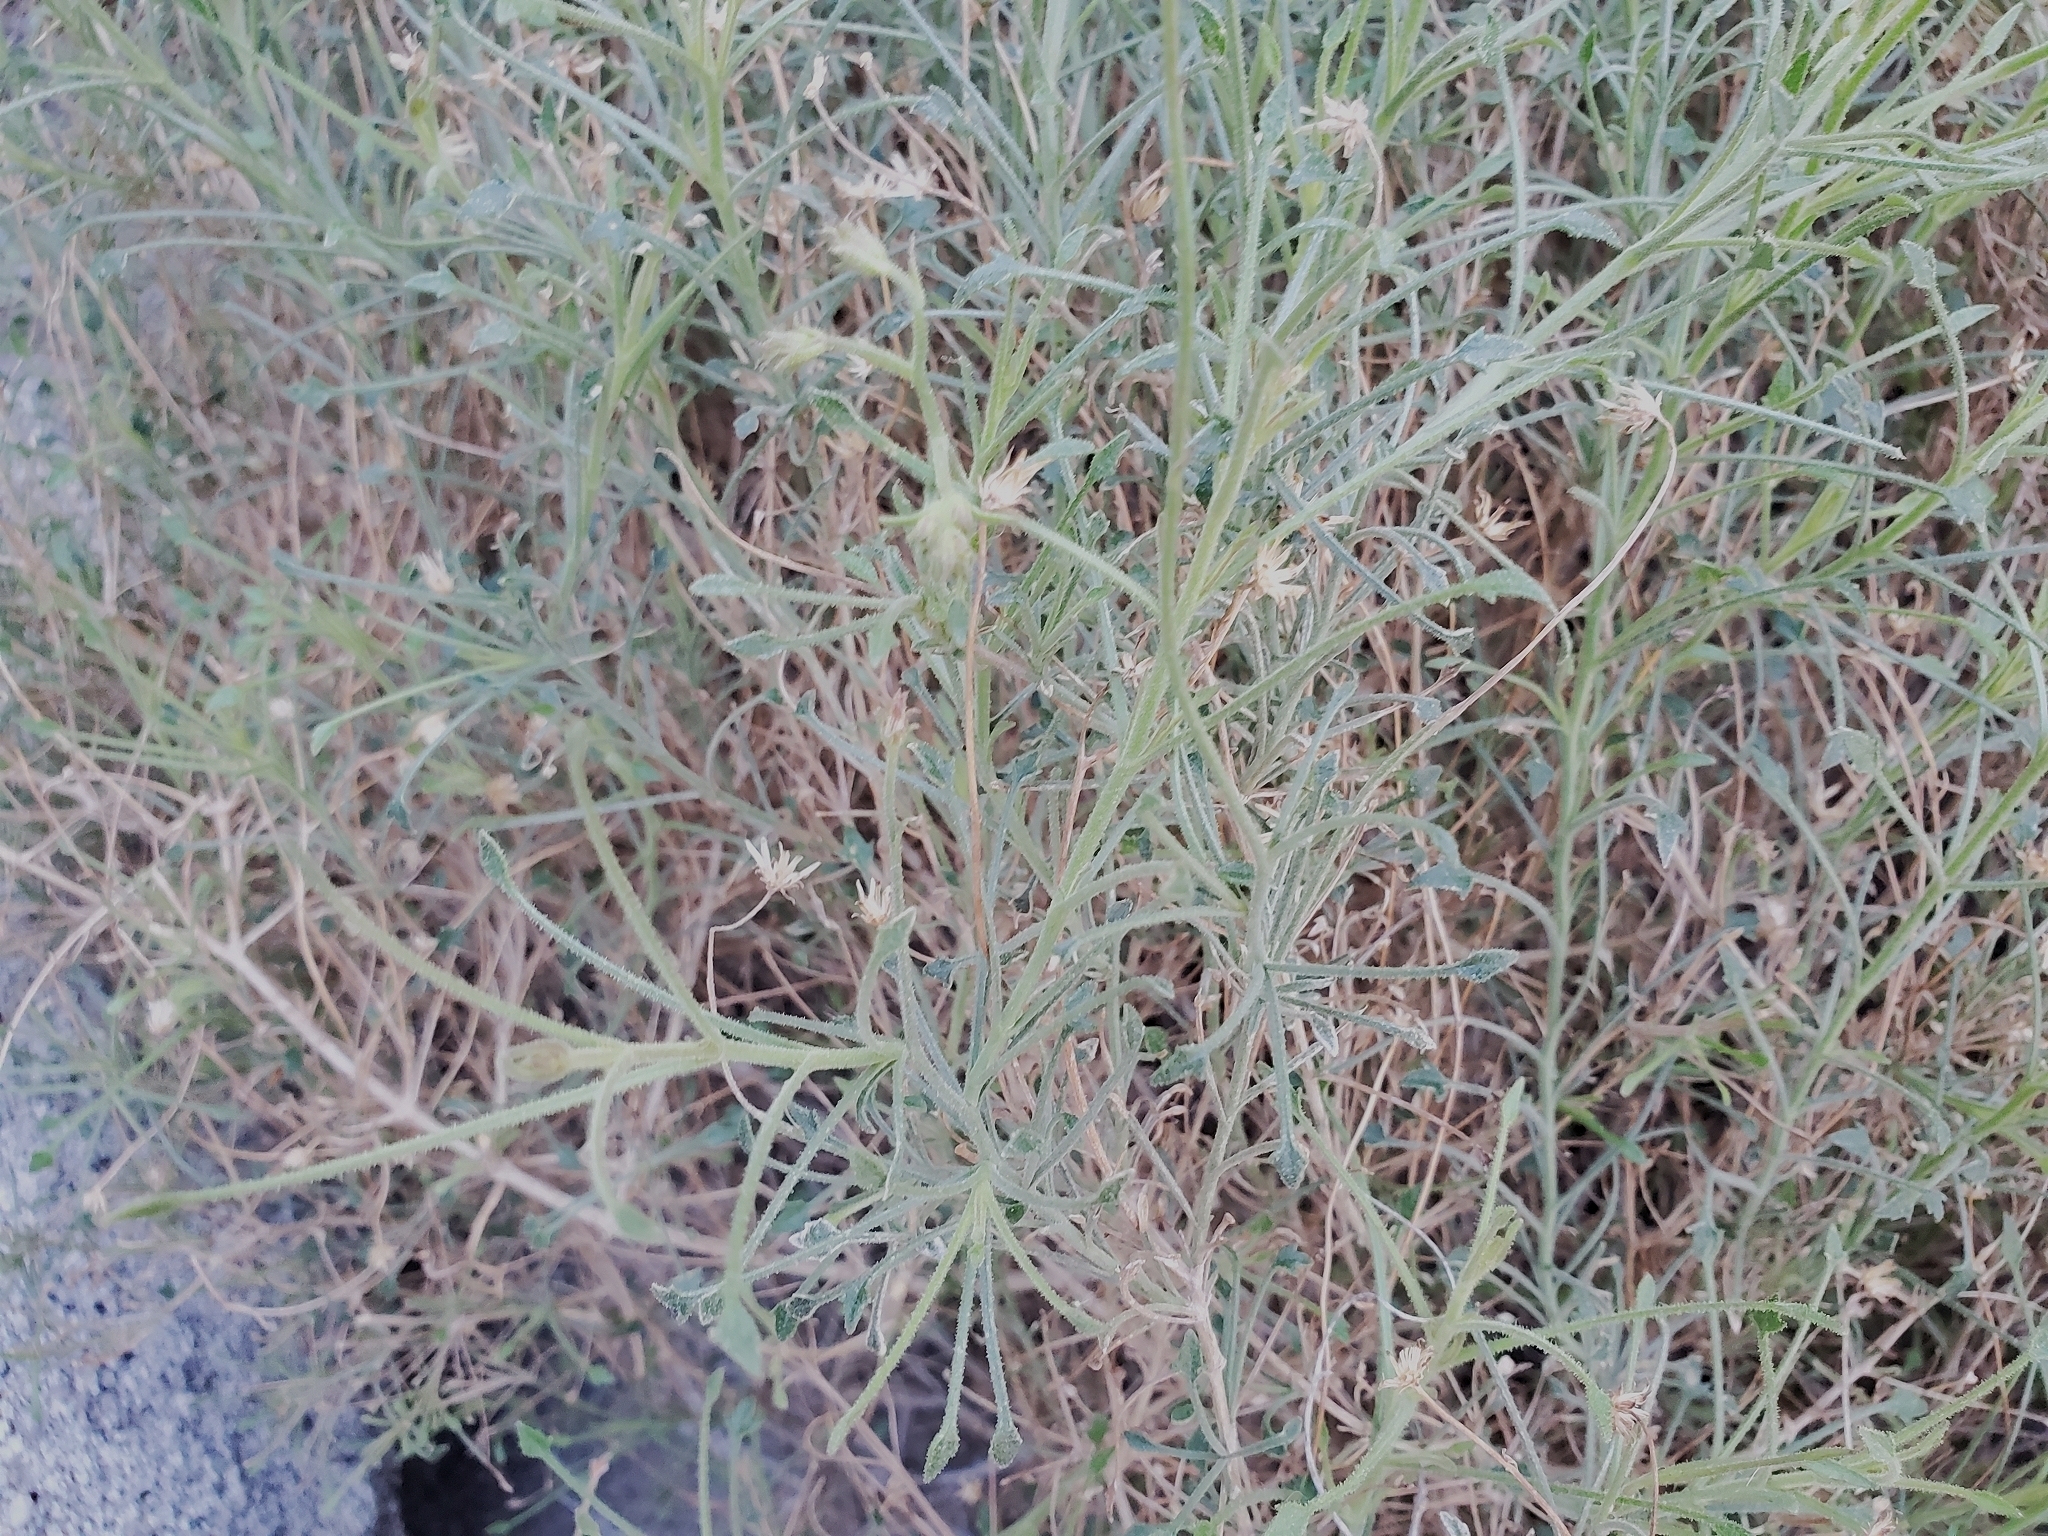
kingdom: Plantae
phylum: Tracheophyta
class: Magnoliopsida
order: Asterales
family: Asteraceae
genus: Pleurocoronis
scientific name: Pleurocoronis pluriseta
